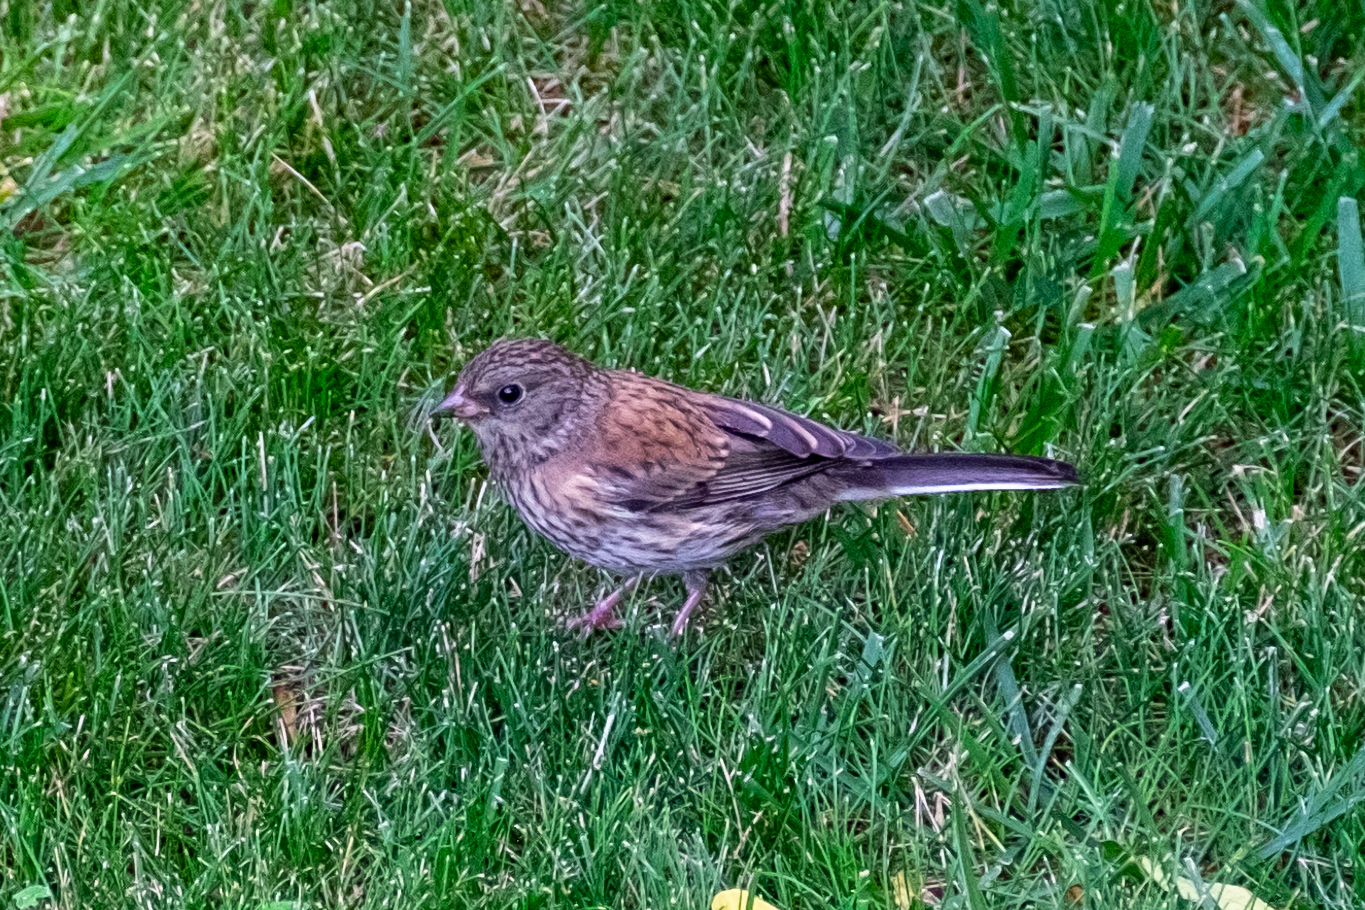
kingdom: Animalia
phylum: Chordata
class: Aves
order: Passeriformes
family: Passerellidae
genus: Junco
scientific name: Junco hyemalis
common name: Dark-eyed junco
